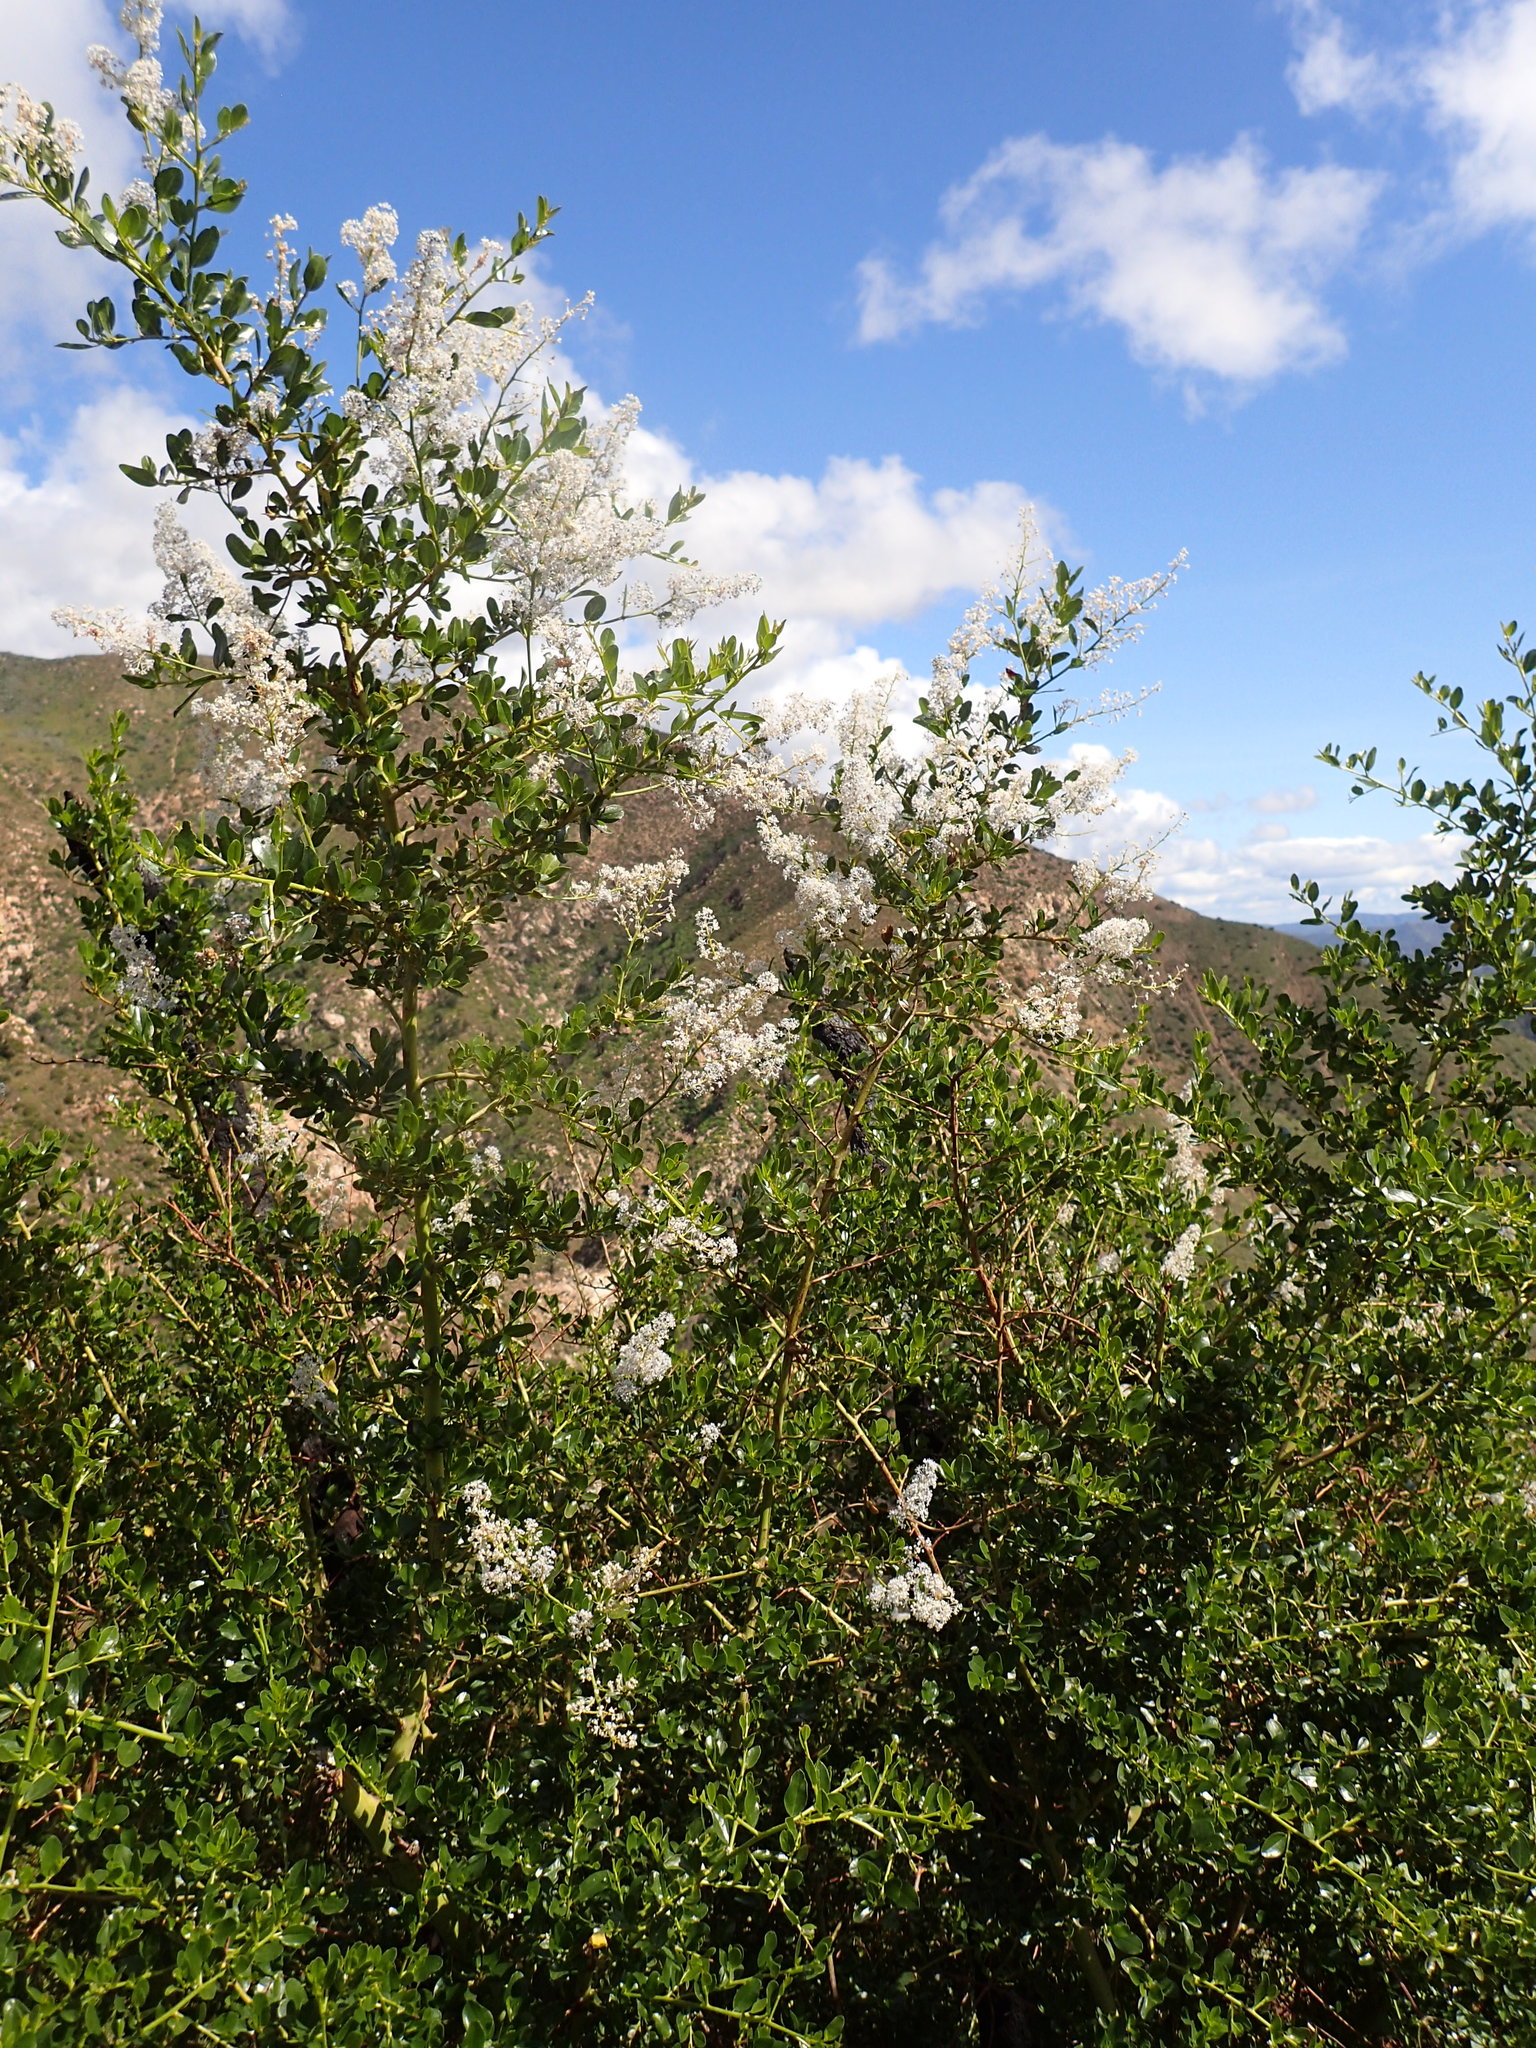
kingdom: Plantae
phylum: Tracheophyta
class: Magnoliopsida
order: Rosales
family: Rhamnaceae
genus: Ceanothus
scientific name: Ceanothus spinosus
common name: Greenbark whitethorn
